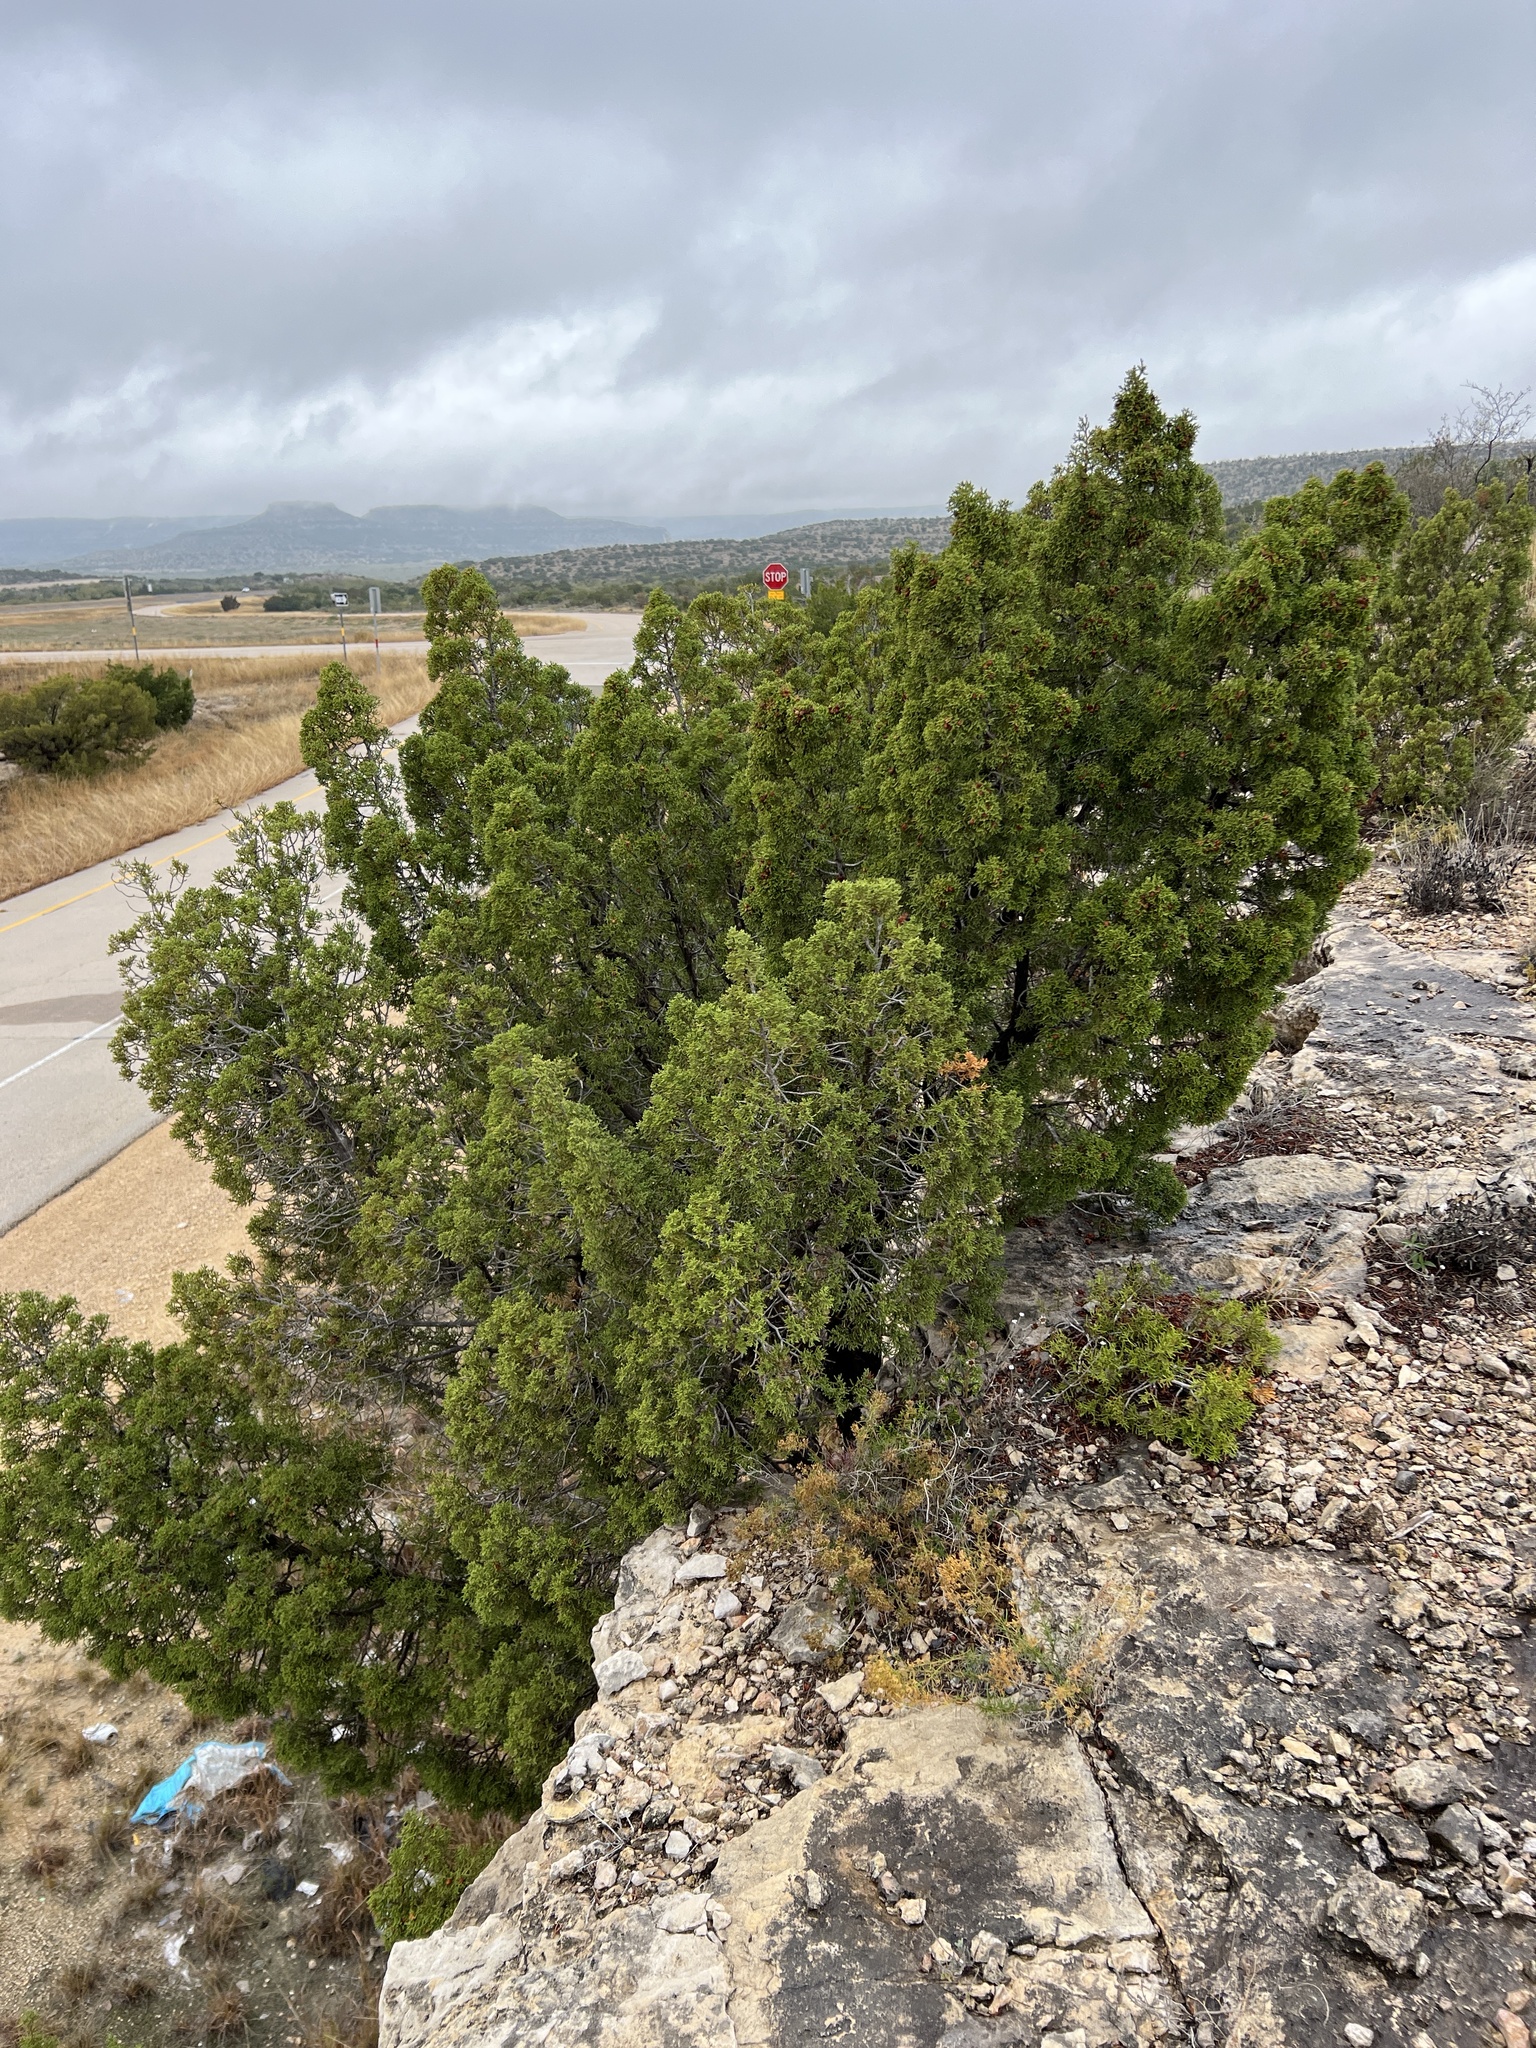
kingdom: Plantae
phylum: Tracheophyta
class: Pinopsida
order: Pinales
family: Cupressaceae
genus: Juniperus
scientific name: Juniperus pinchotii
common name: Pinchot juniper
